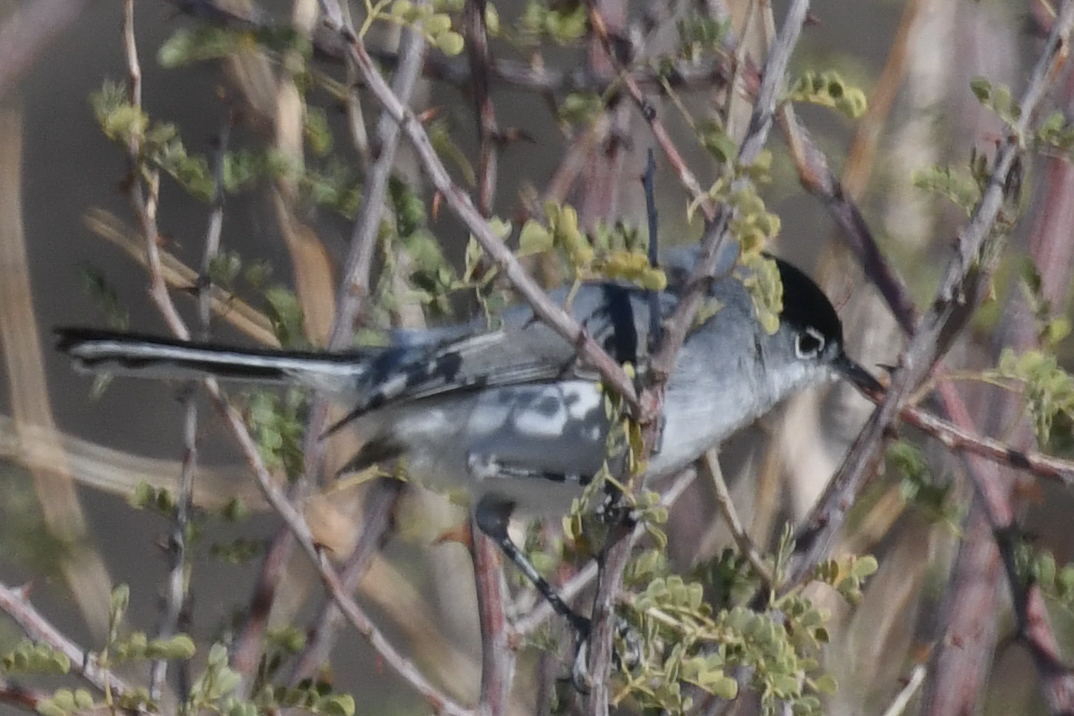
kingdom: Animalia
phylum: Chordata
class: Aves
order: Passeriformes
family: Polioptilidae
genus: Polioptila
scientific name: Polioptila melanura
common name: Black-tailed gnatcatcher
